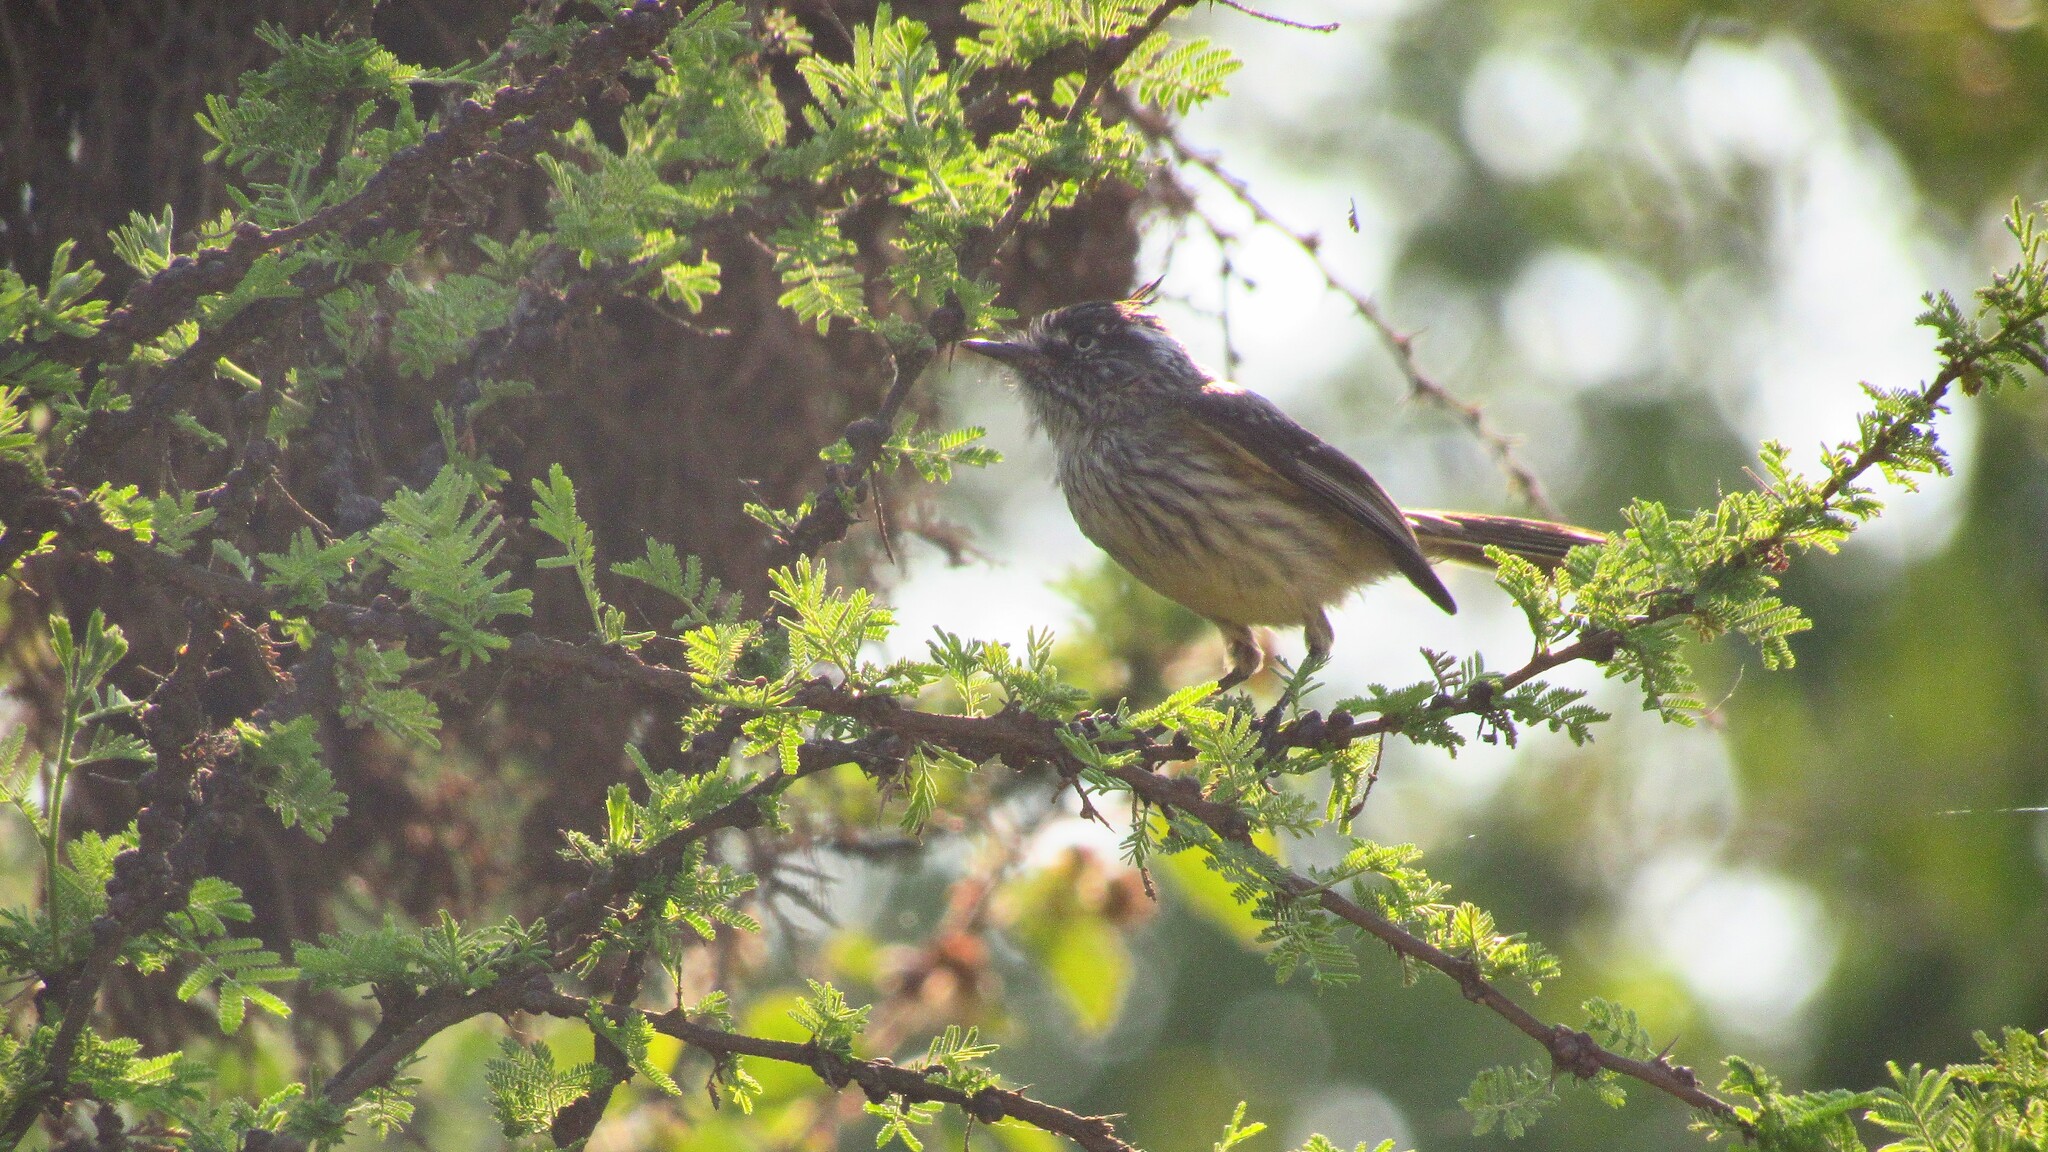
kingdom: Animalia
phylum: Chordata
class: Aves
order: Passeriformes
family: Tyrannidae
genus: Anairetes
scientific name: Anairetes parulus
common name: Tufted tit-tyrant
